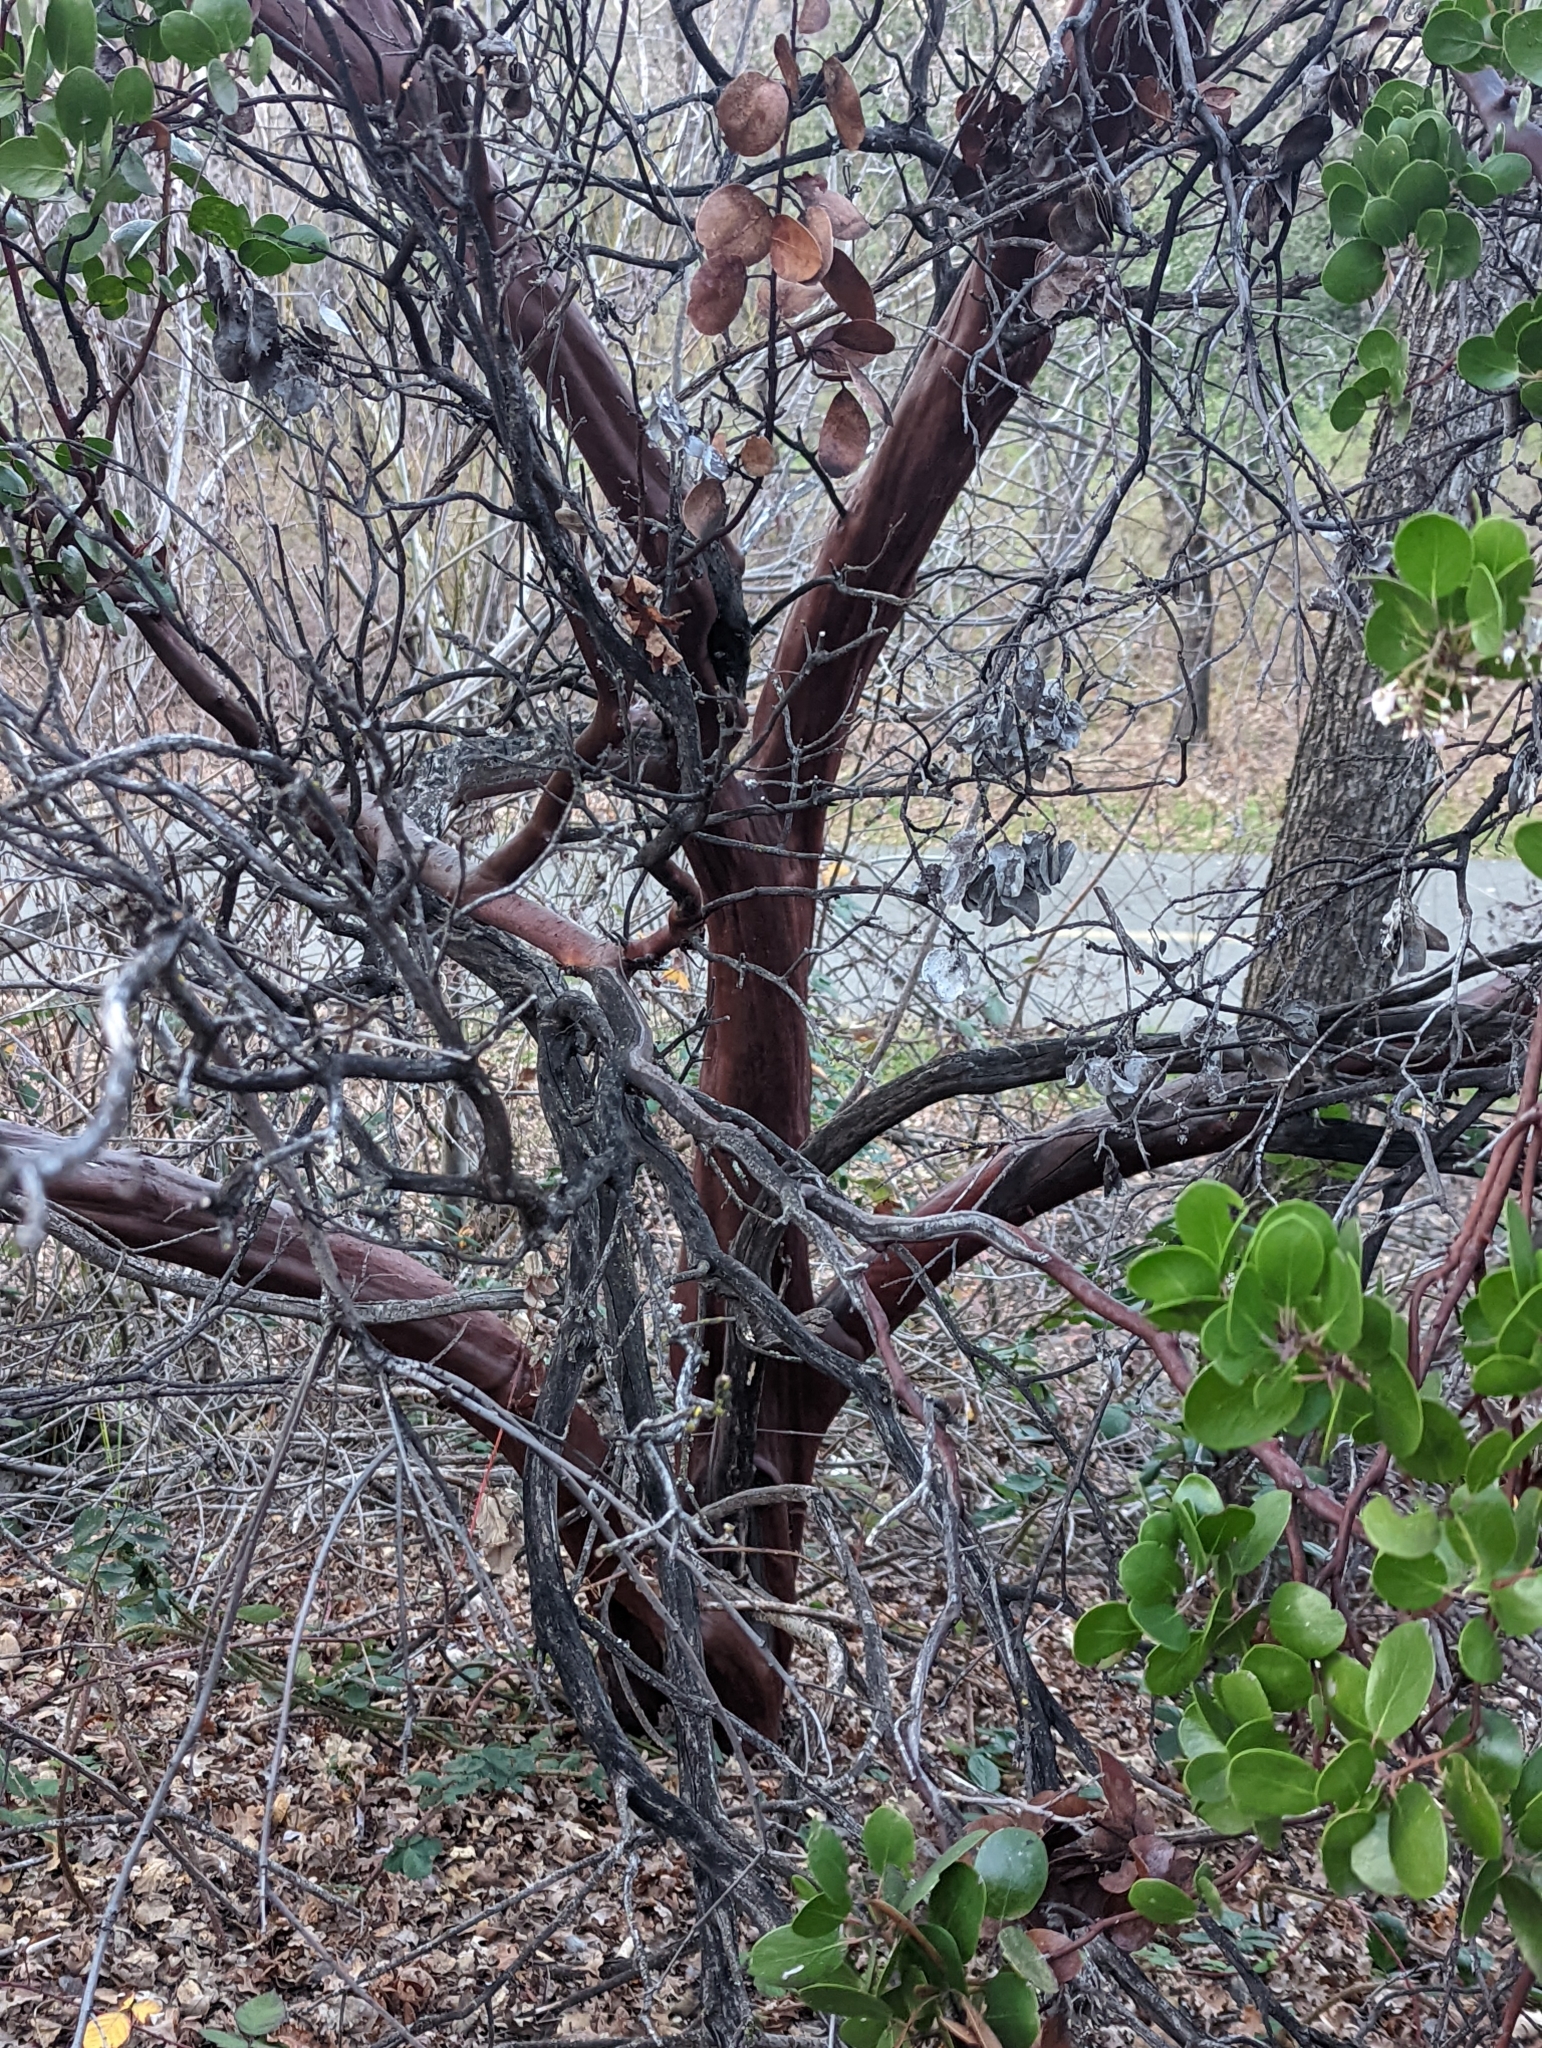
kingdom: Plantae
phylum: Tracheophyta
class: Magnoliopsida
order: Ericales
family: Ericaceae
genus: Arctostaphylos
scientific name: Arctostaphylos manzanita
